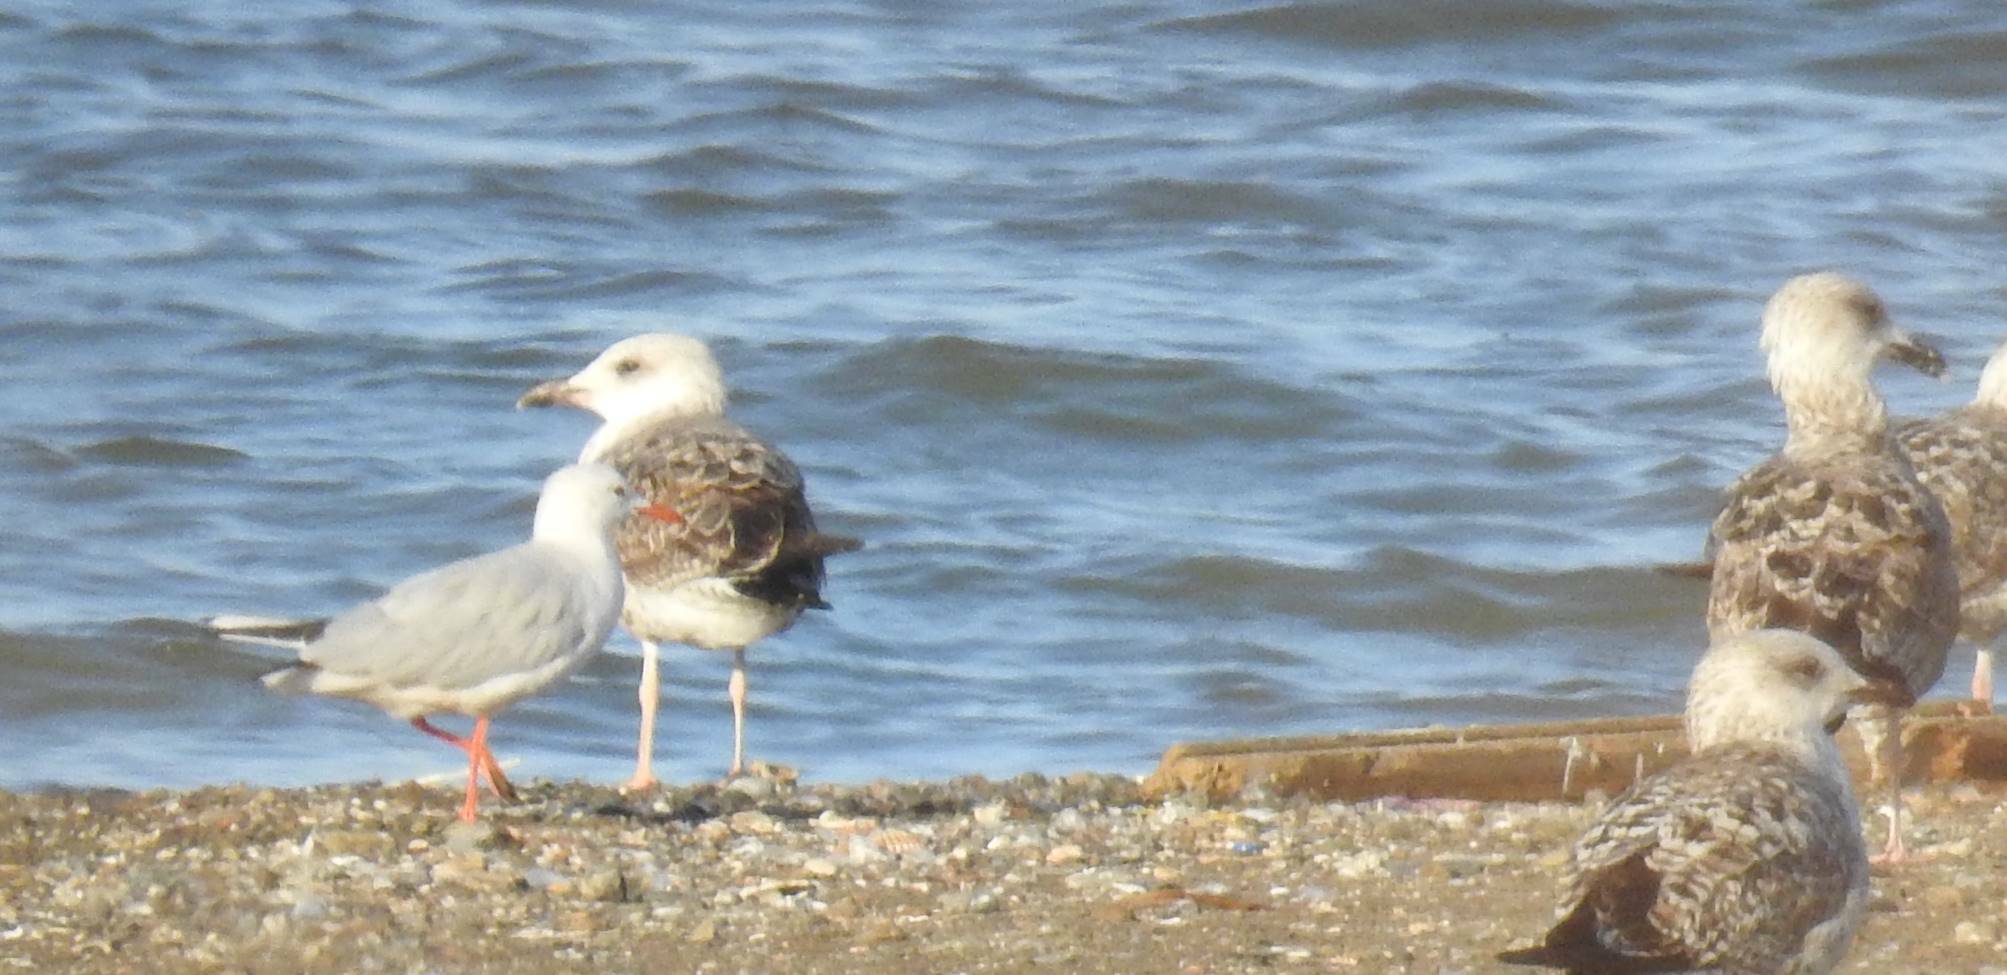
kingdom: Animalia
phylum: Chordata
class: Aves
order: Charadriiformes
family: Laridae
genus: Larus
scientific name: Larus michahellis
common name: Yellow-legged gull
